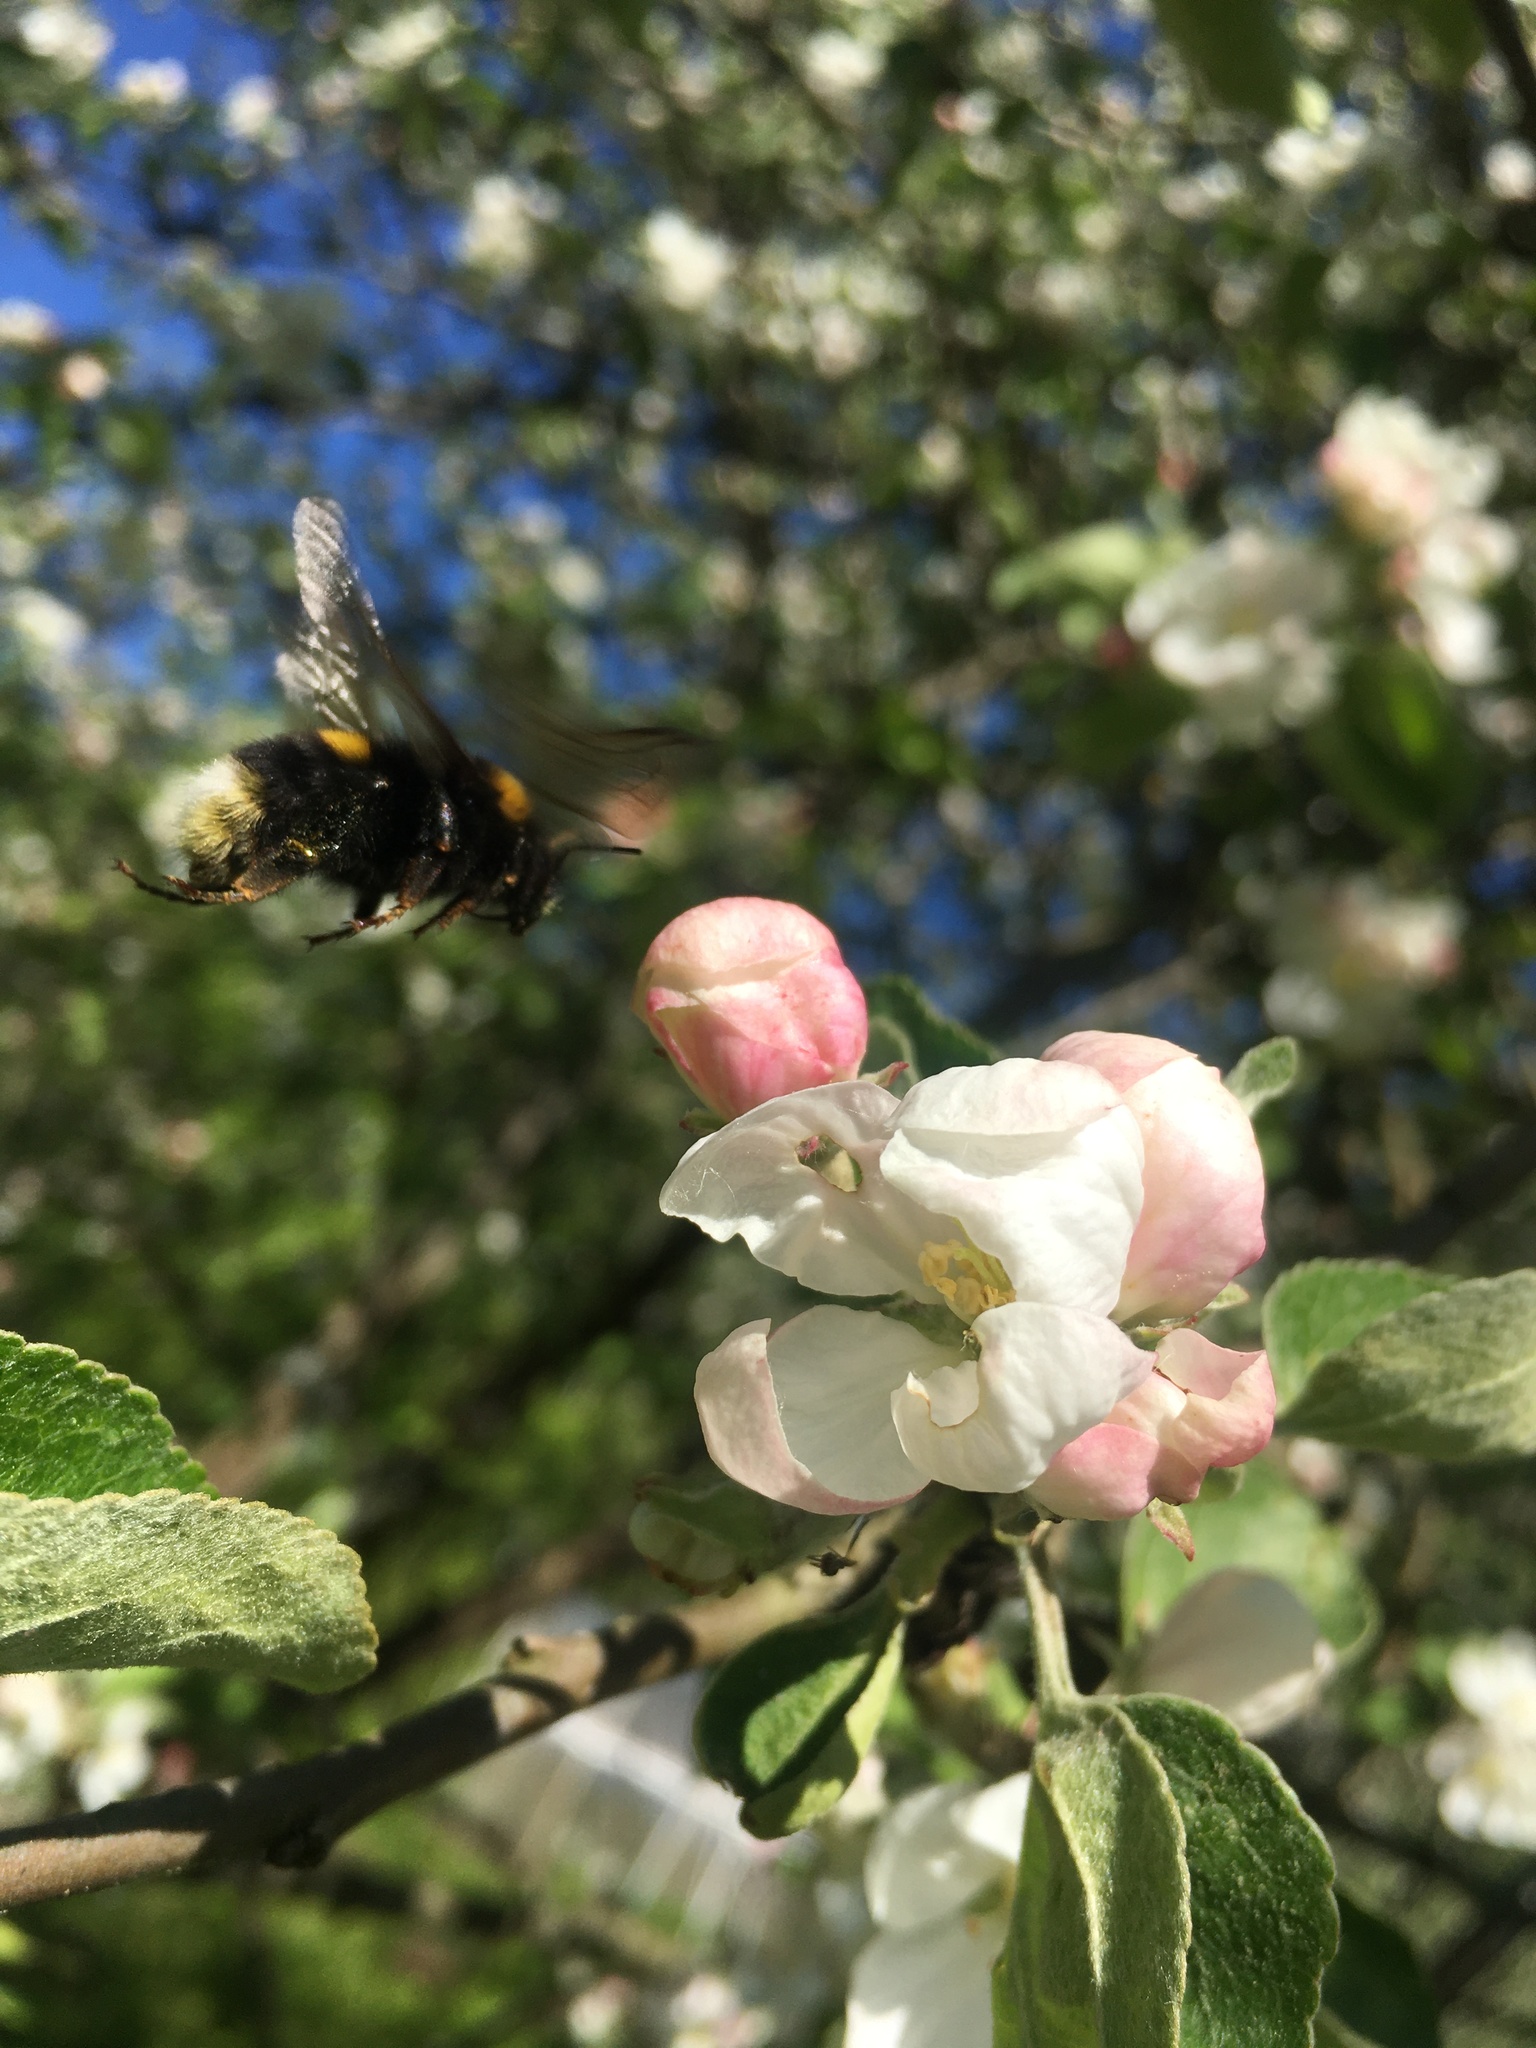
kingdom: Animalia
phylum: Arthropoda
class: Insecta
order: Hymenoptera
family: Apidae
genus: Bombus
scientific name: Bombus lucorum
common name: White-tailed bumblebee
